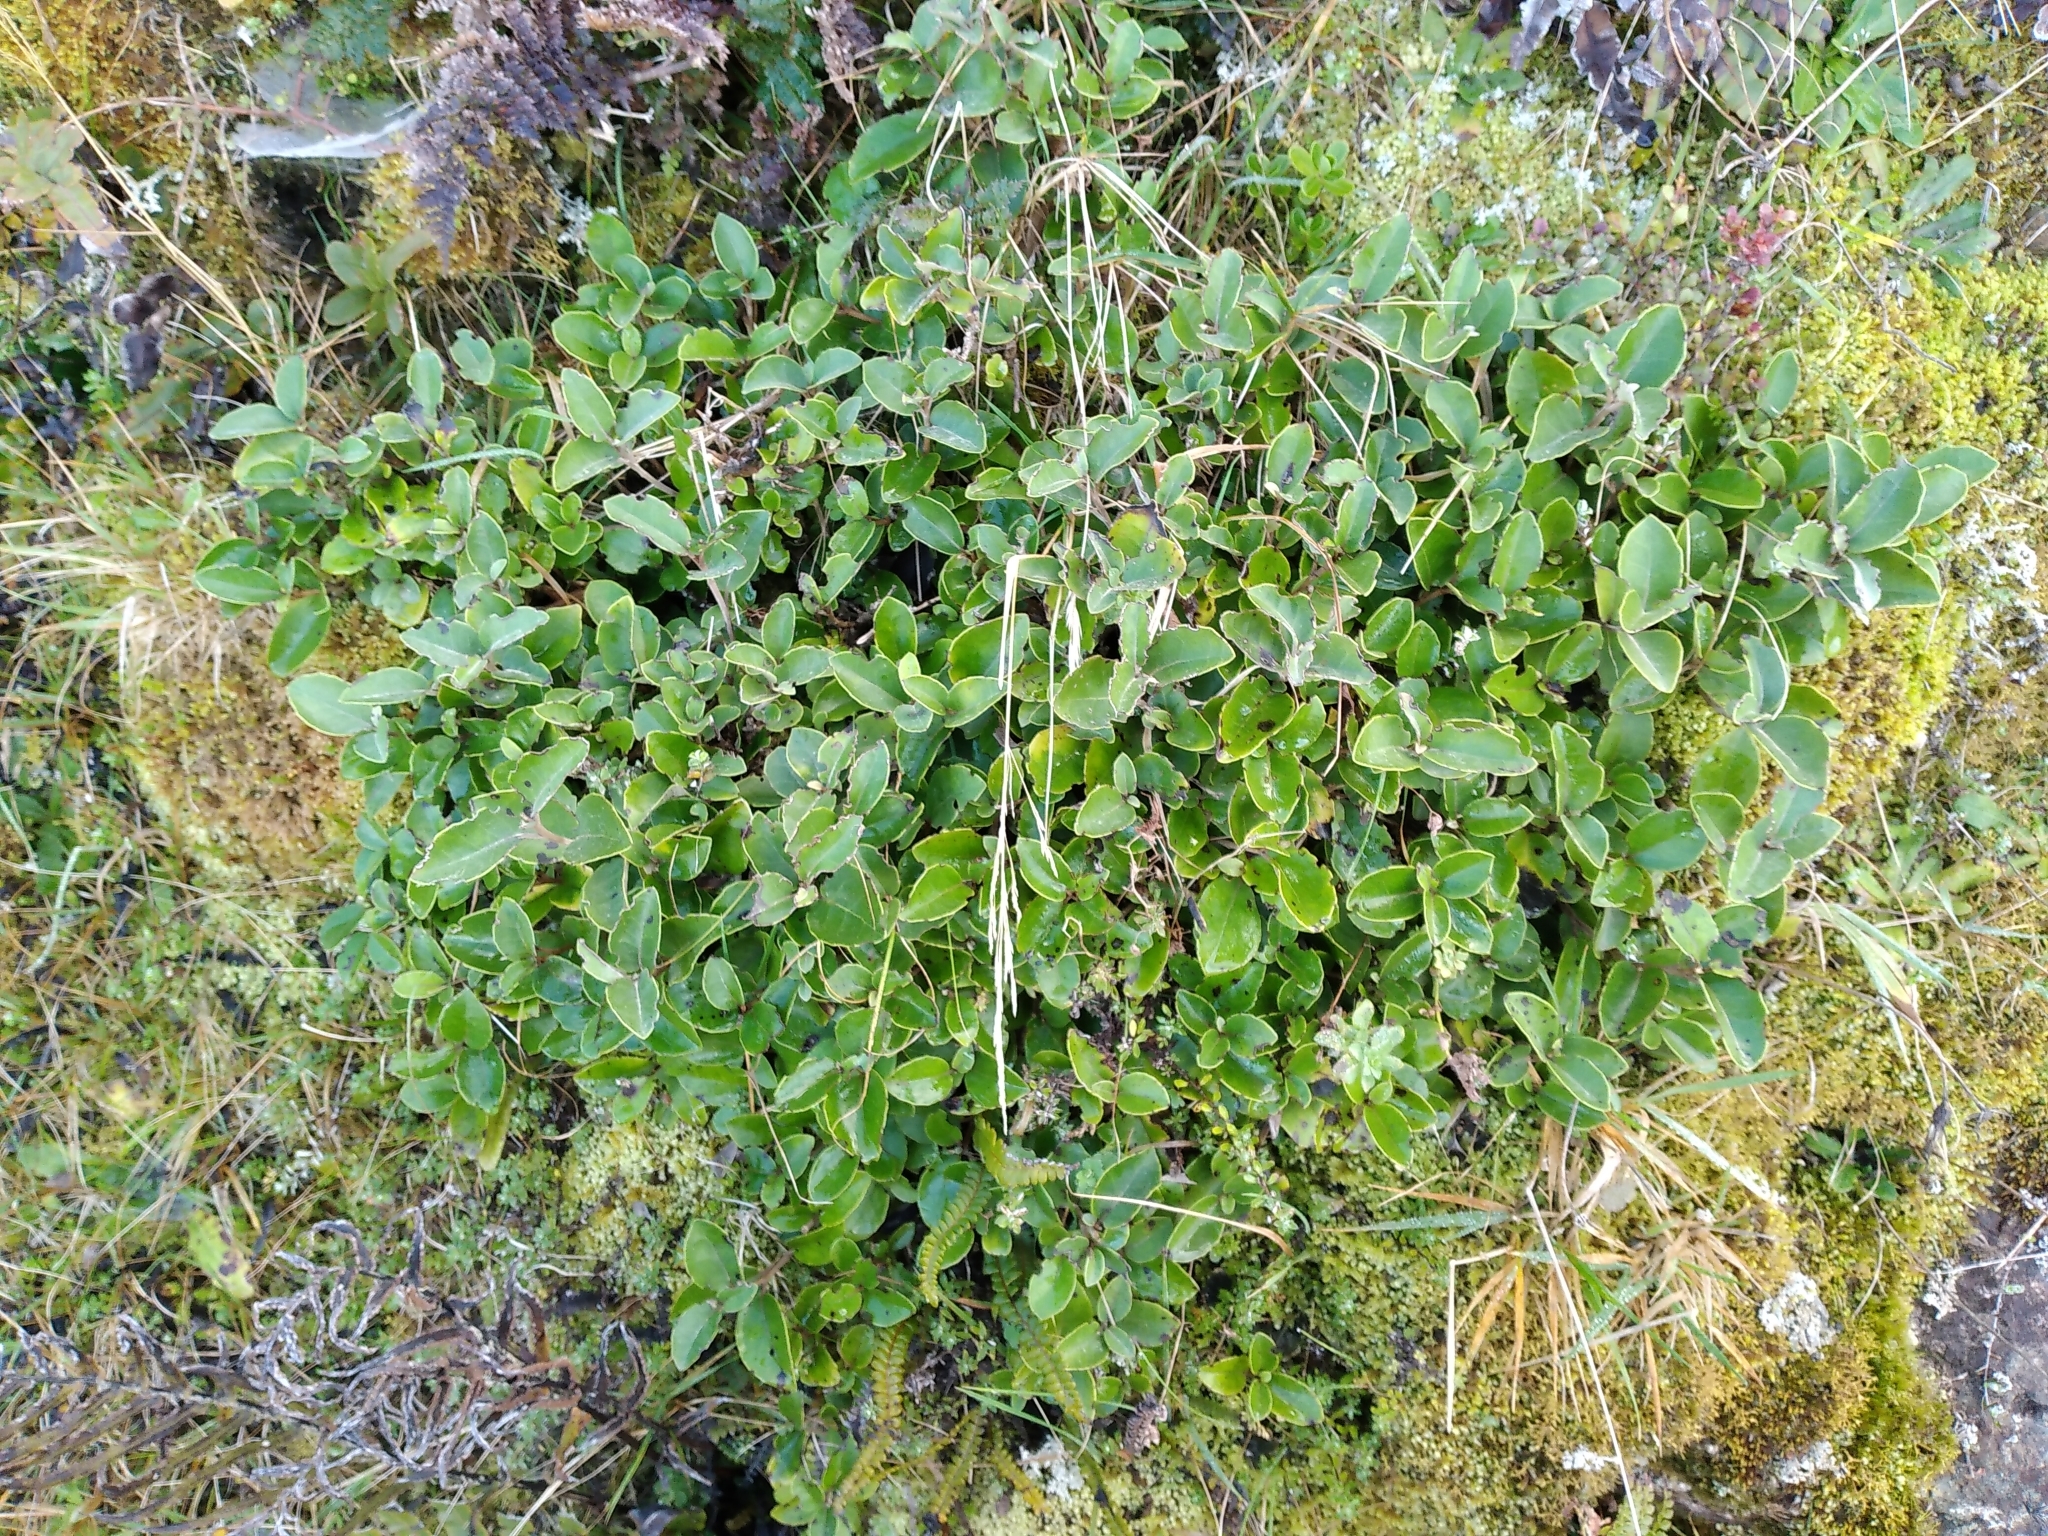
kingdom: Plantae
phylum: Tracheophyta
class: Magnoliopsida
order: Asterales
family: Asteraceae
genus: Olearia
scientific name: Olearia arborescens
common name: Glossy tree daisy
